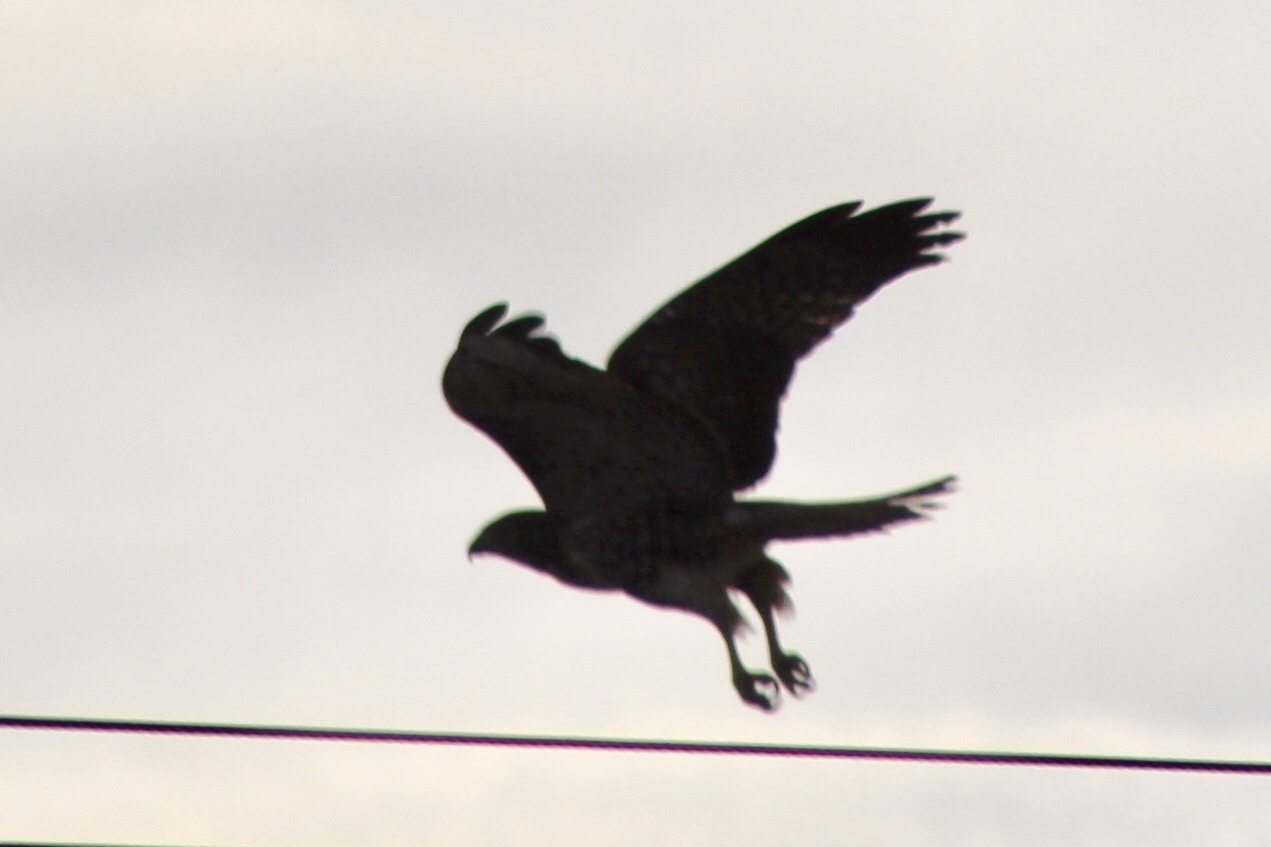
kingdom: Animalia
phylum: Chordata
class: Aves
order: Accipitriformes
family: Accipitridae
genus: Buteo
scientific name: Buteo jamaicensis
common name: Red-tailed hawk
